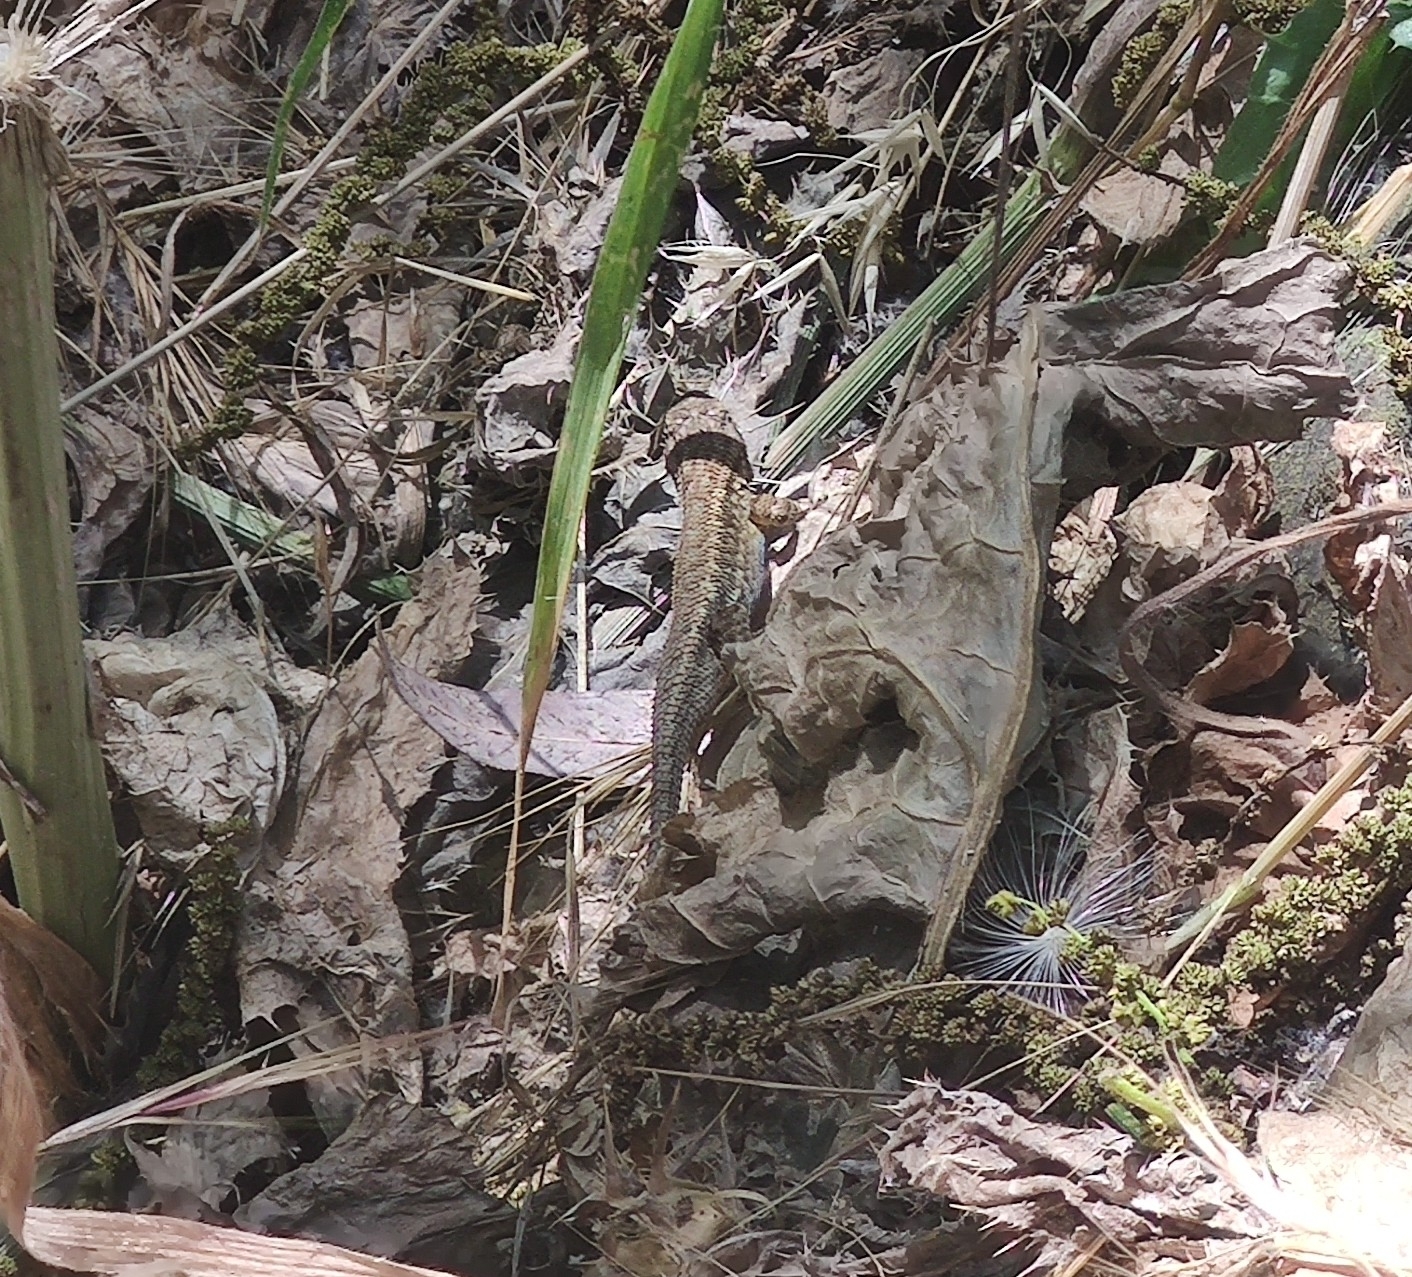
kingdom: Animalia
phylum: Chordata
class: Squamata
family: Phrynosomatidae
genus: Sceloporus
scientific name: Sceloporus occidentalis
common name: Western fence lizard
